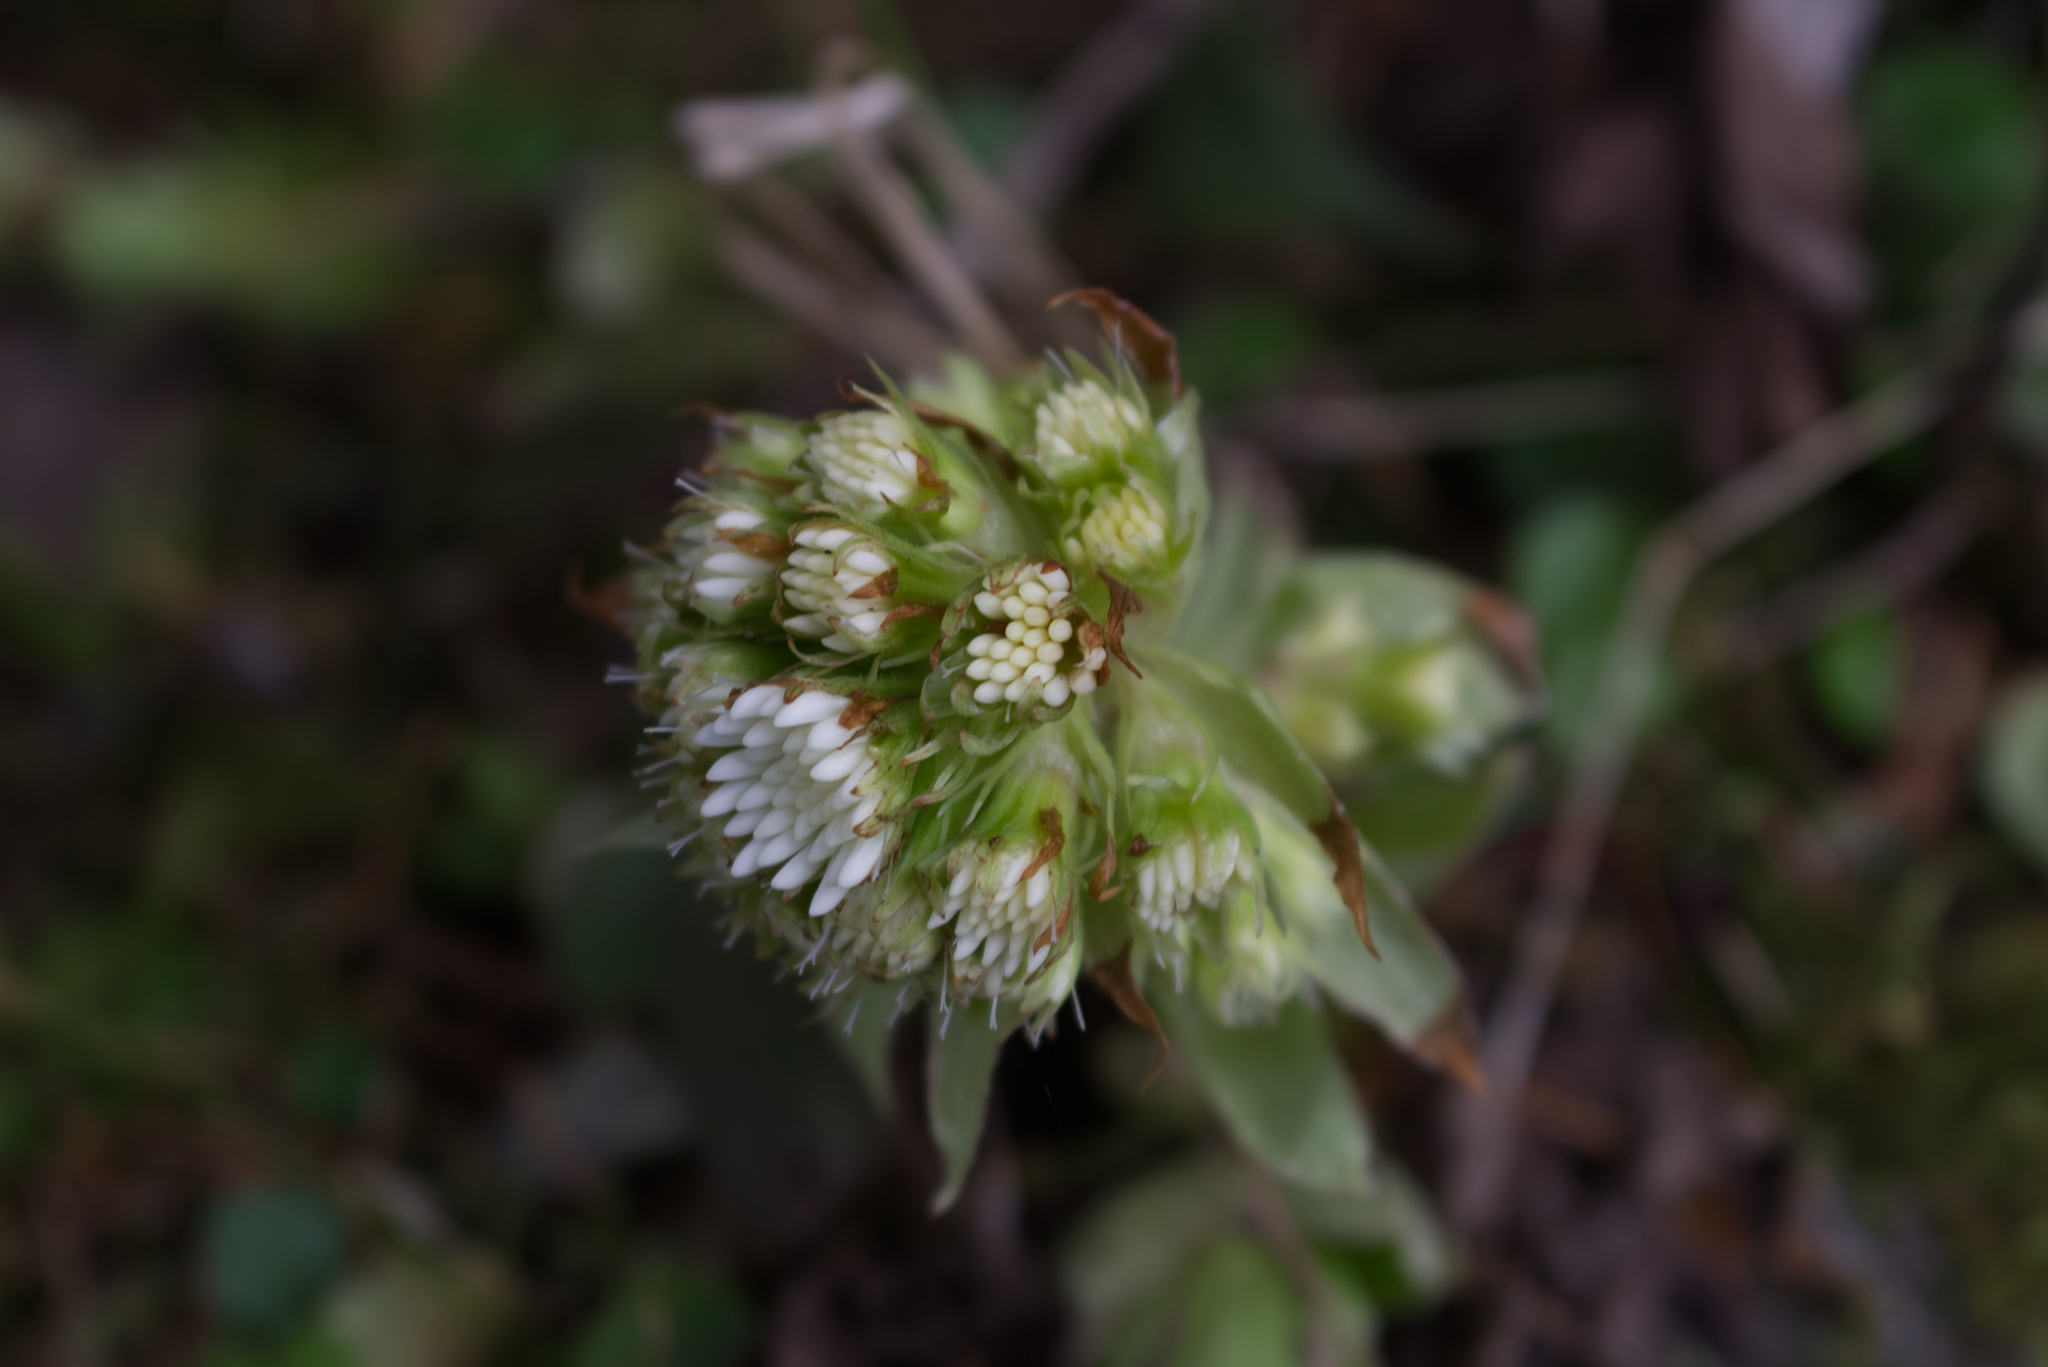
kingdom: Plantae
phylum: Tracheophyta
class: Magnoliopsida
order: Asterales
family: Asteraceae
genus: Petasites
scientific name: Petasites albus
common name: White butterbur
